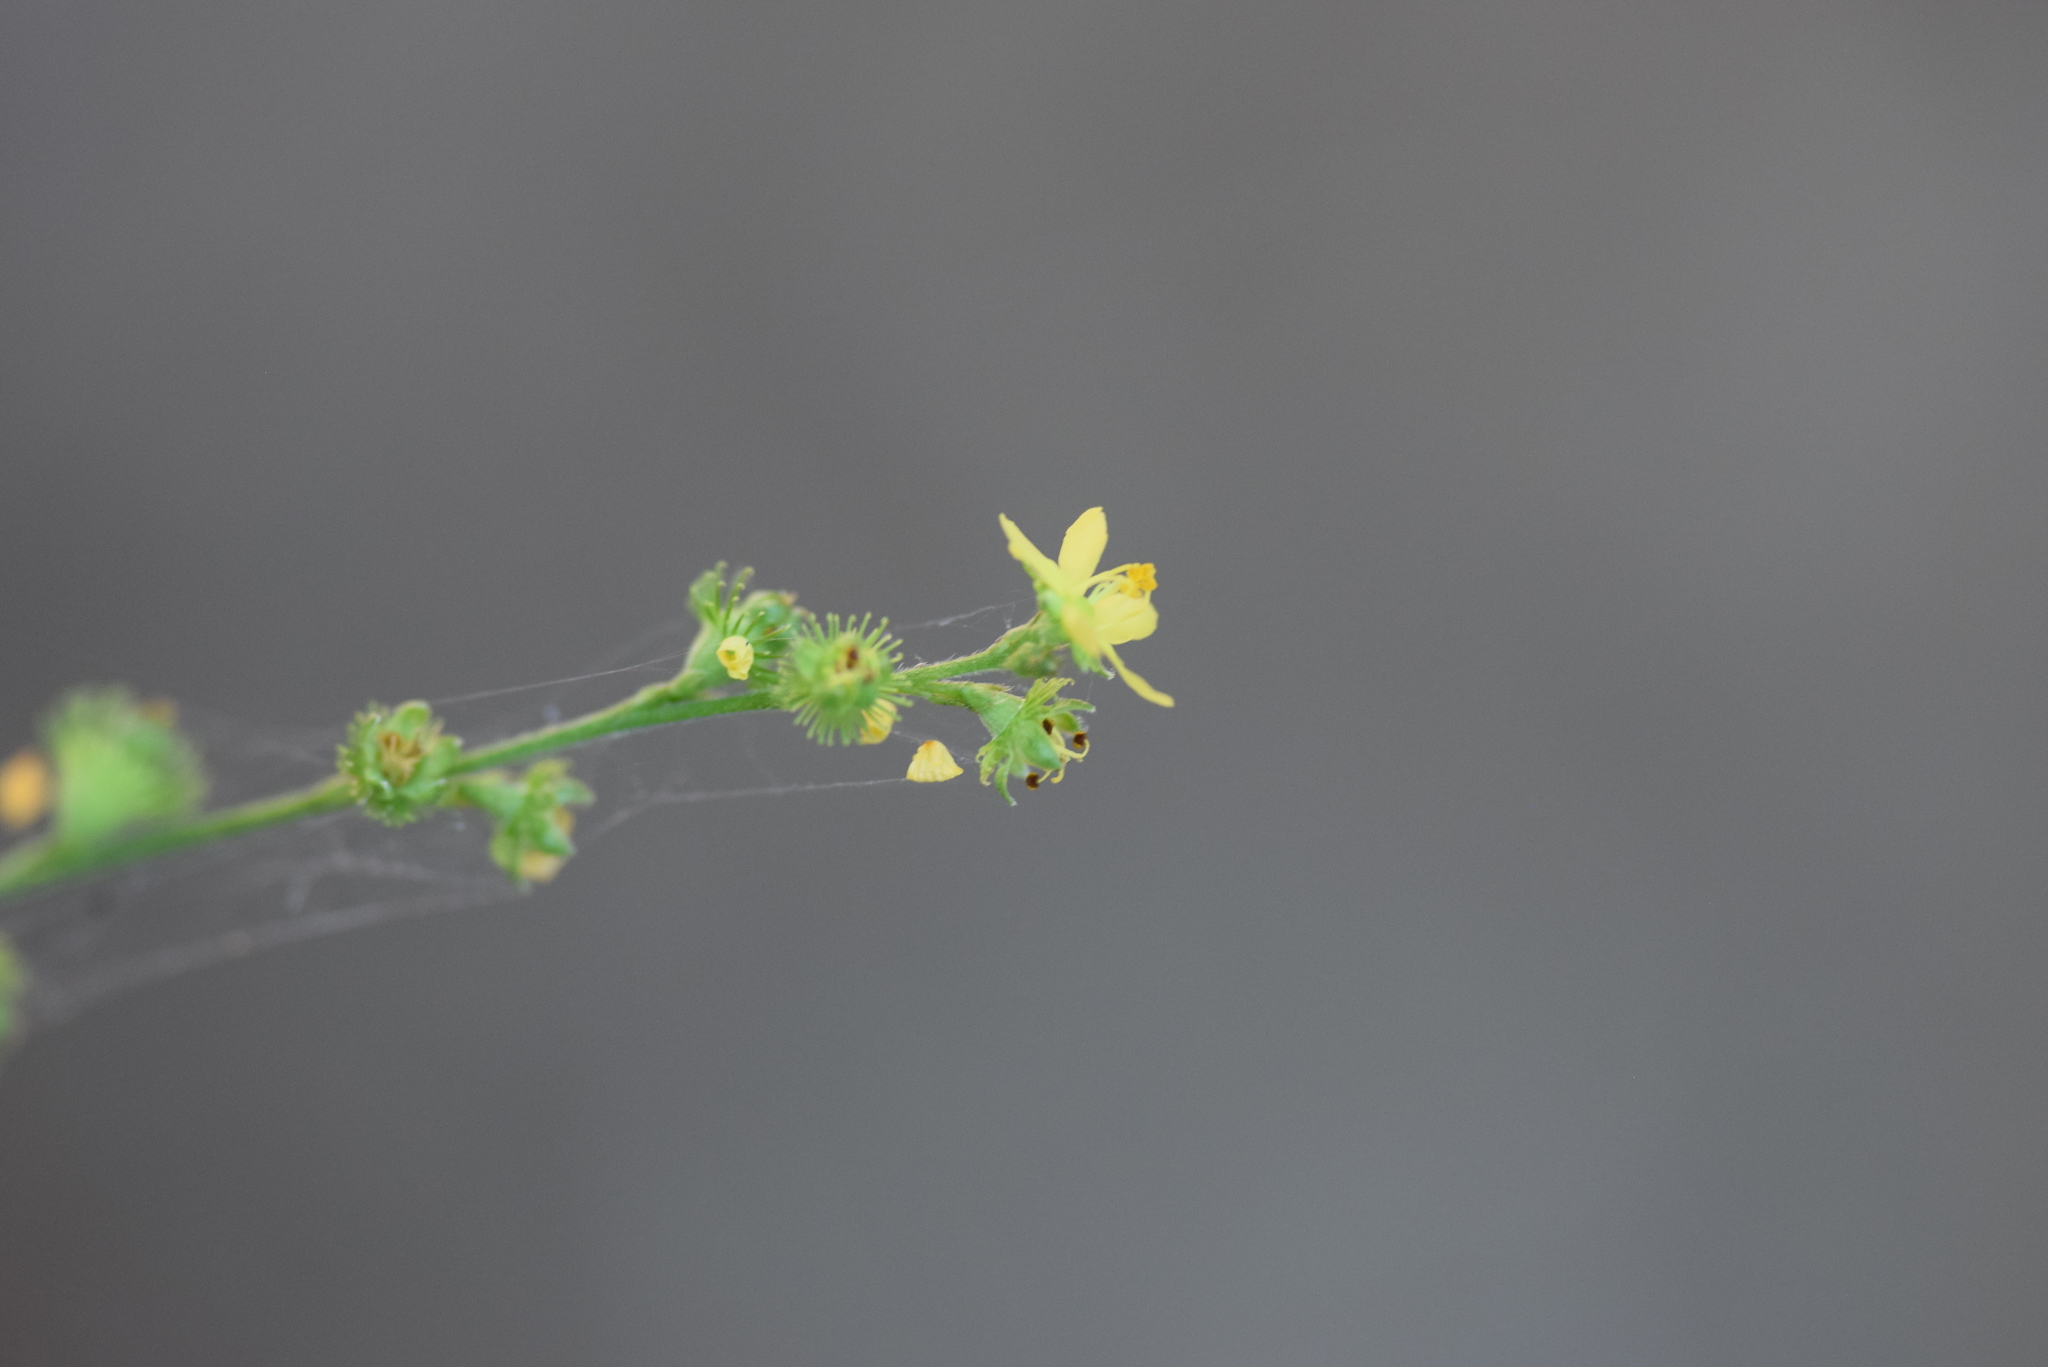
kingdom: Plantae
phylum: Tracheophyta
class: Magnoliopsida
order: Rosales
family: Rosaceae
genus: Agrimonia
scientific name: Agrimonia microcarpa
